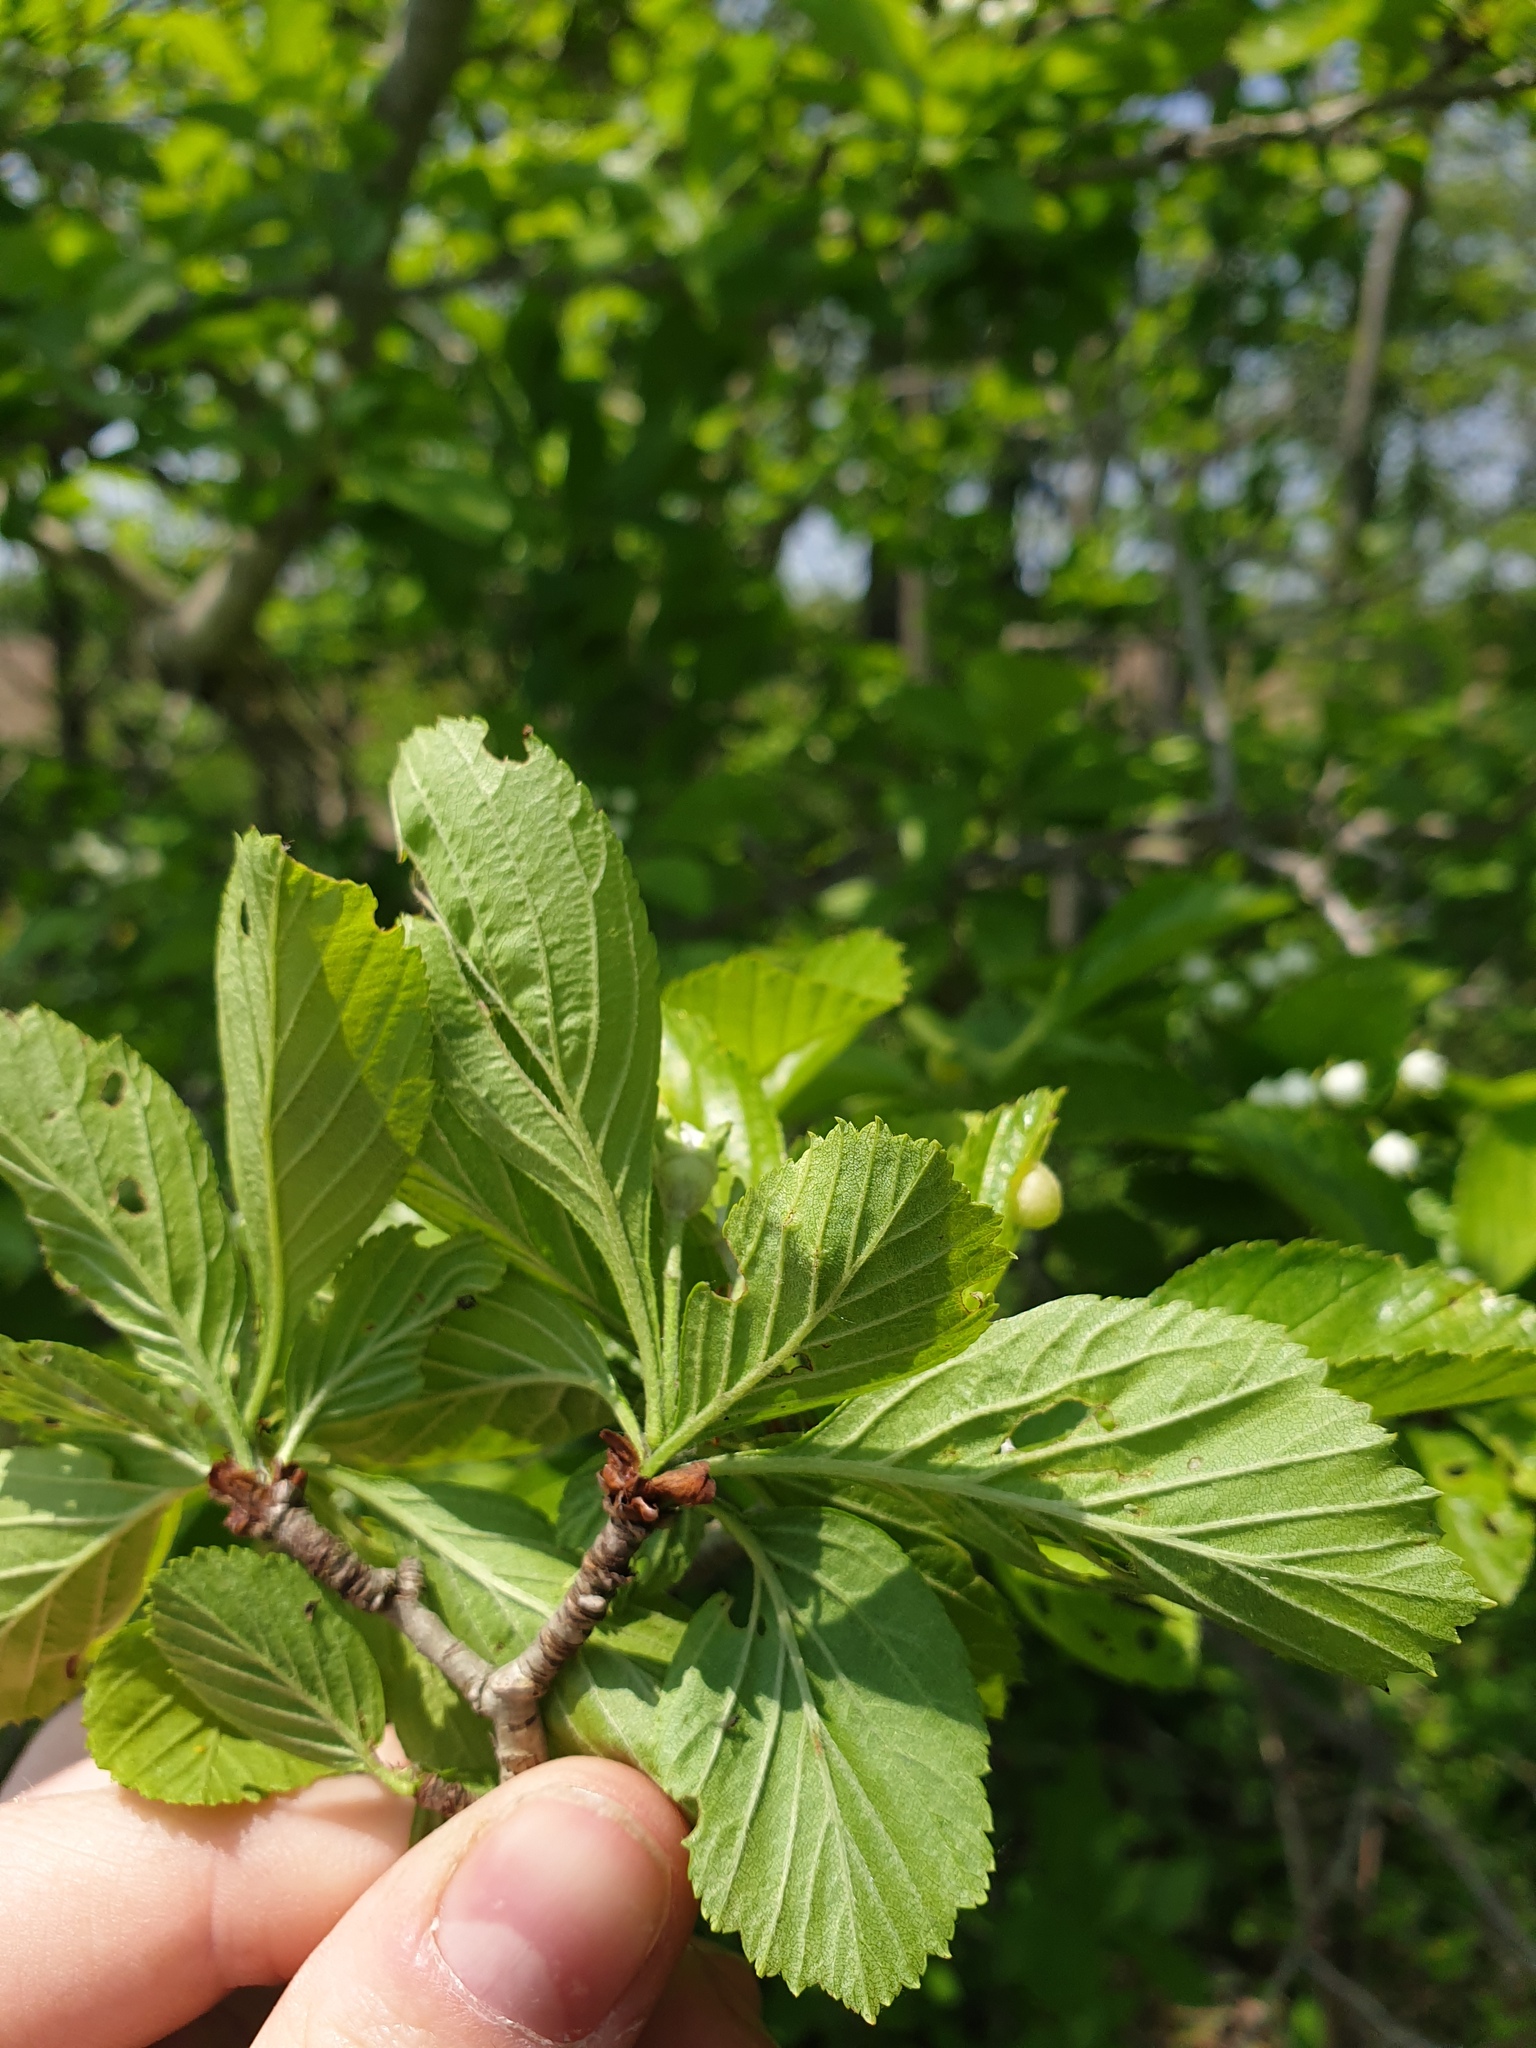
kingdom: Plantae
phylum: Tracheophyta
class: Magnoliopsida
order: Rosales
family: Rosaceae
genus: Crataegus
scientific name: Crataegus punctata
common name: Dotted hawthorn
